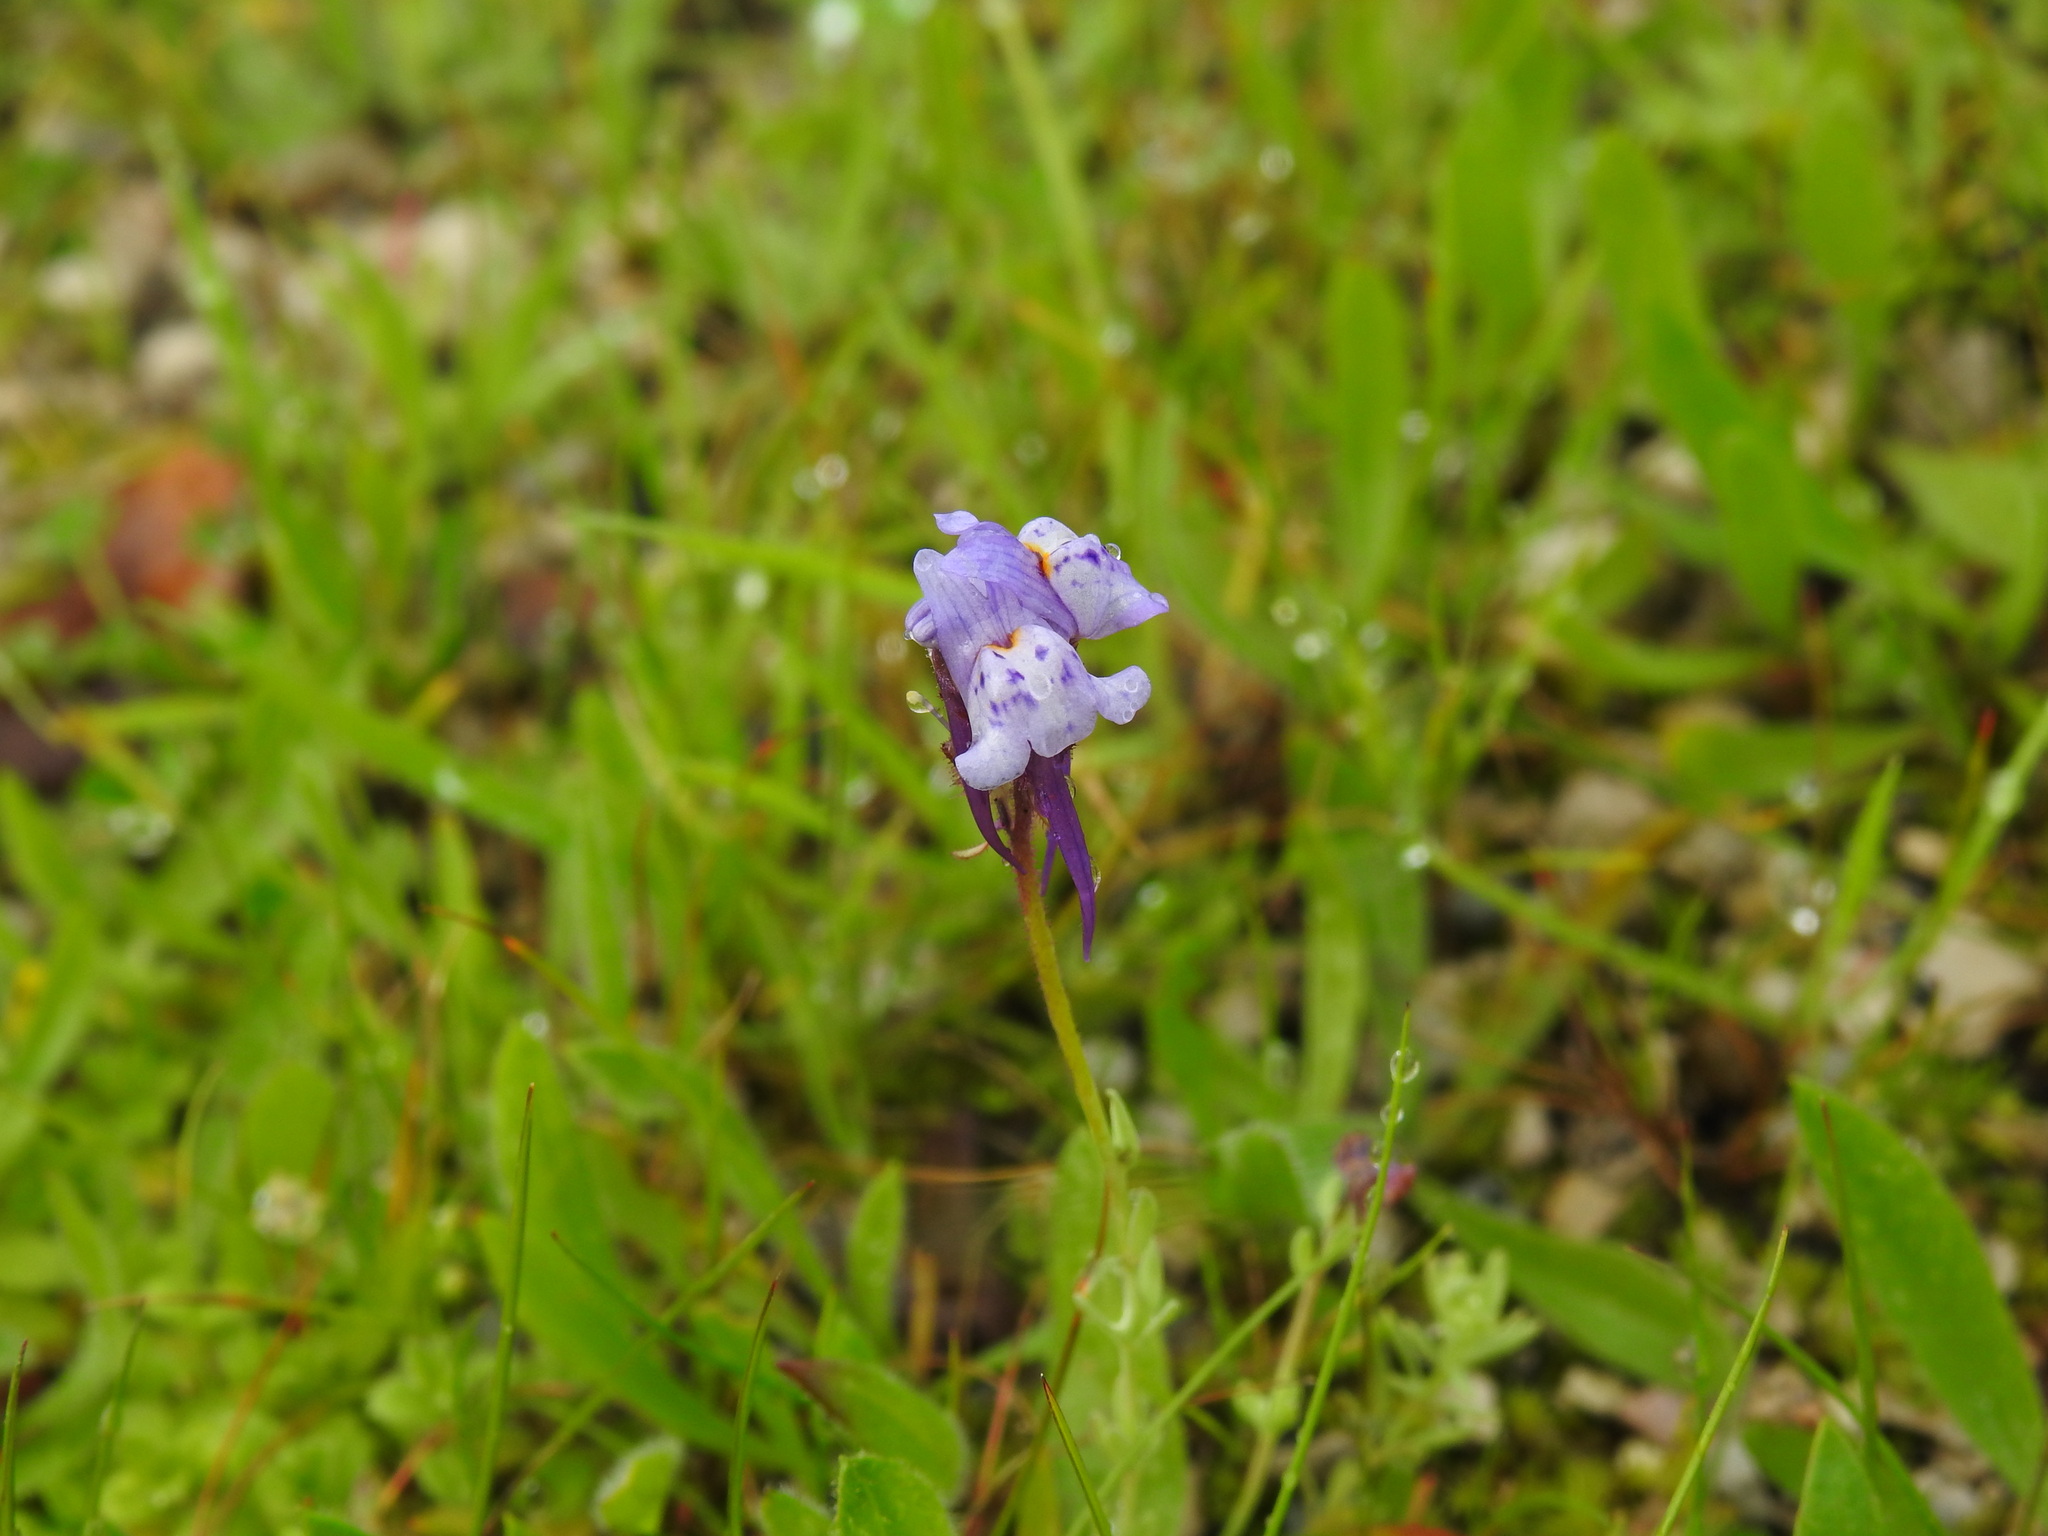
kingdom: Plantae
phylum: Tracheophyta
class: Magnoliopsida
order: Lamiales
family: Plantaginaceae
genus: Linaria
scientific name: Linaria amethystea
